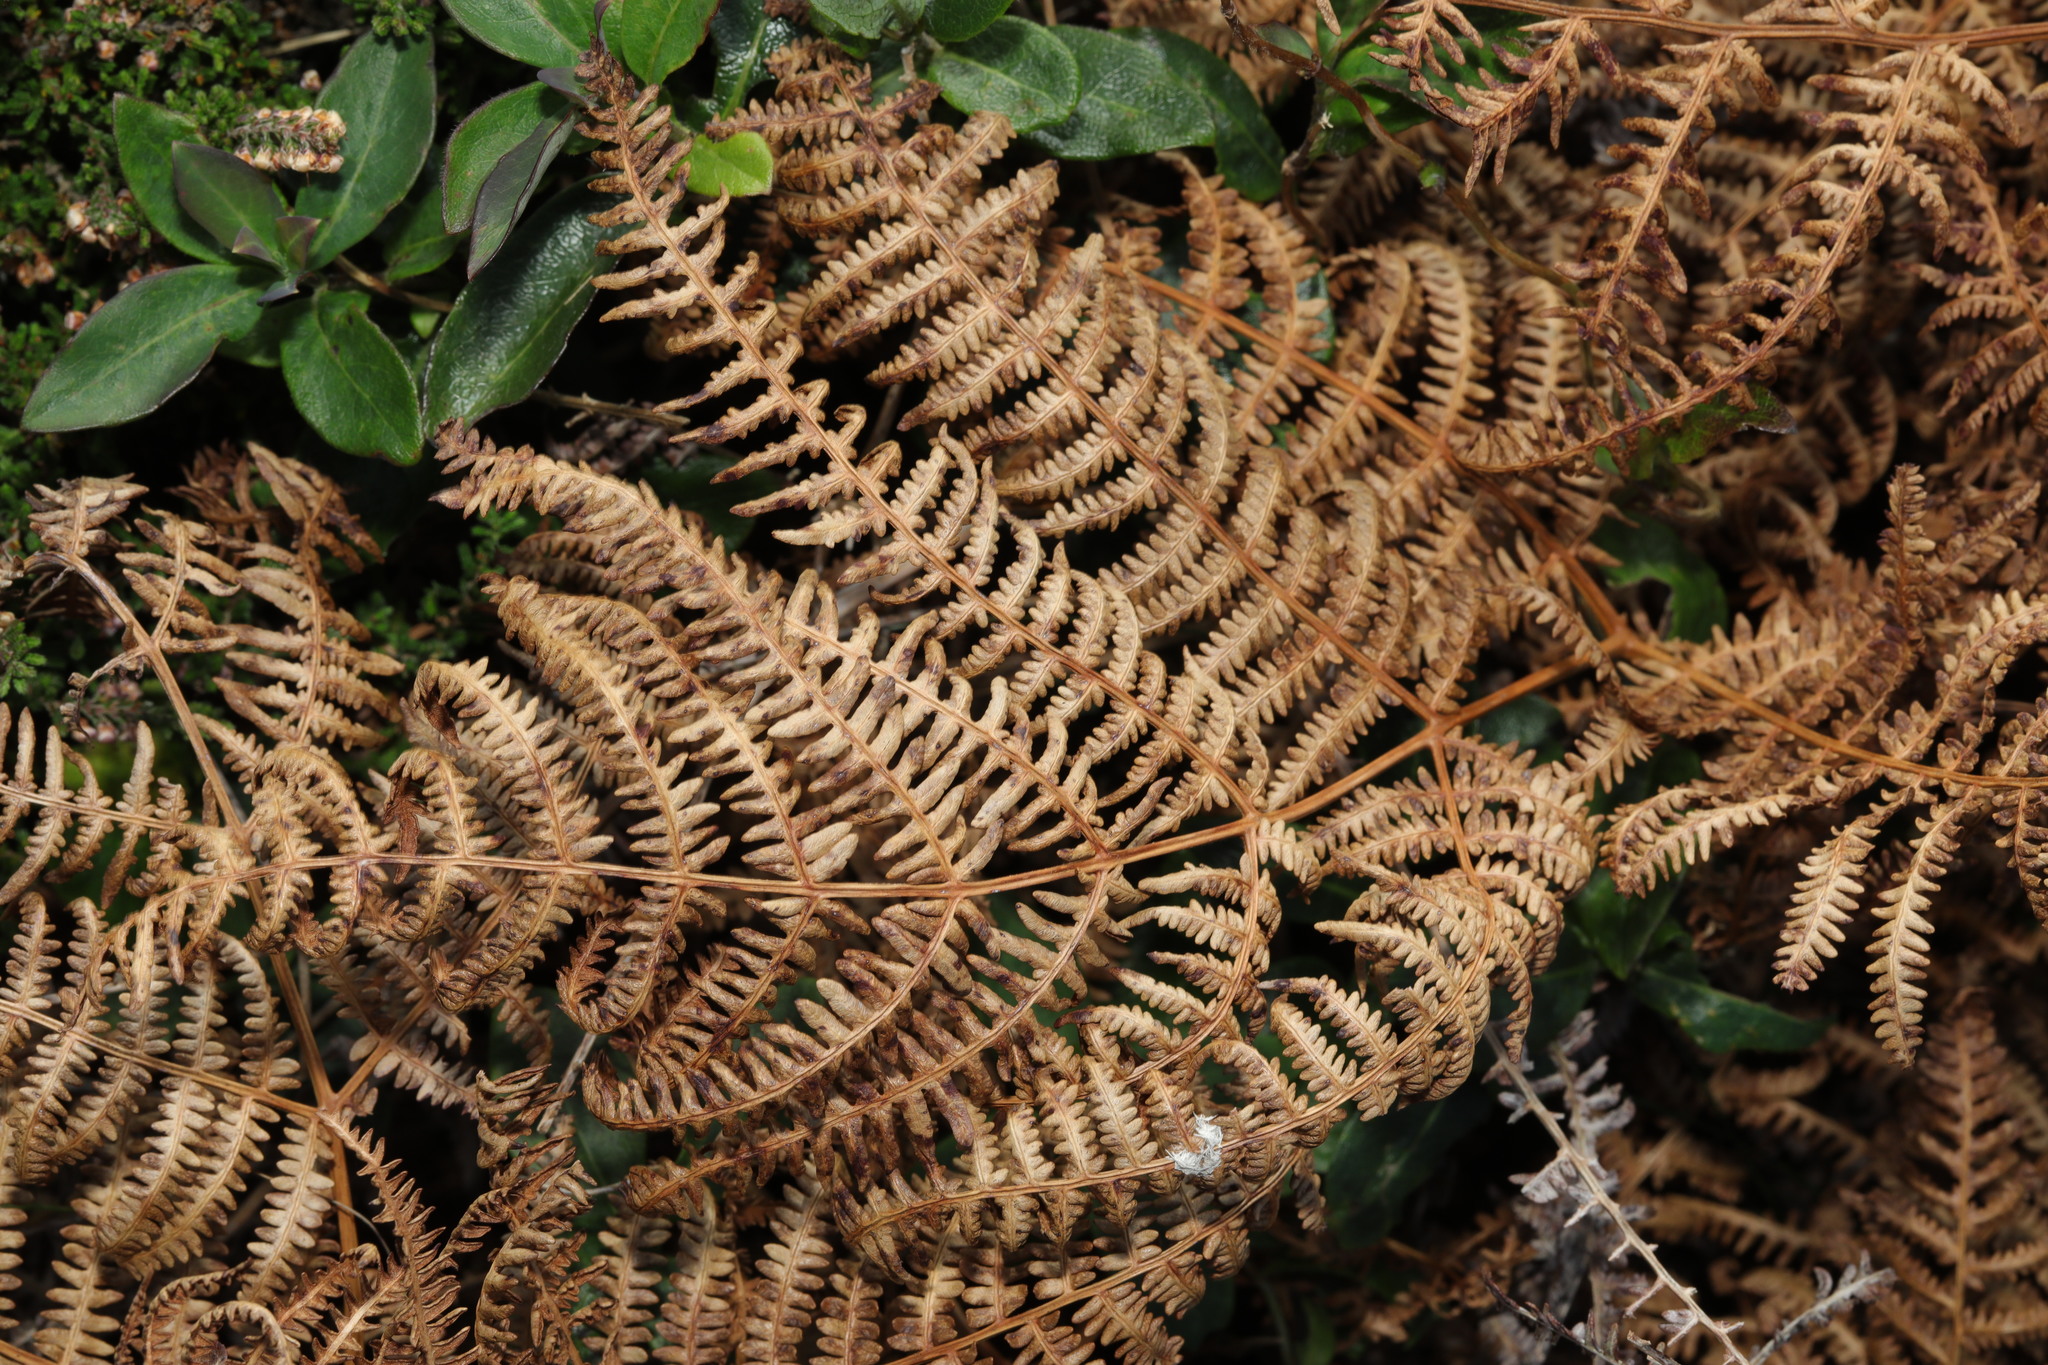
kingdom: Plantae
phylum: Tracheophyta
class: Polypodiopsida
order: Polypodiales
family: Dennstaedtiaceae
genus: Pteridium
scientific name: Pteridium aquilinum
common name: Bracken
